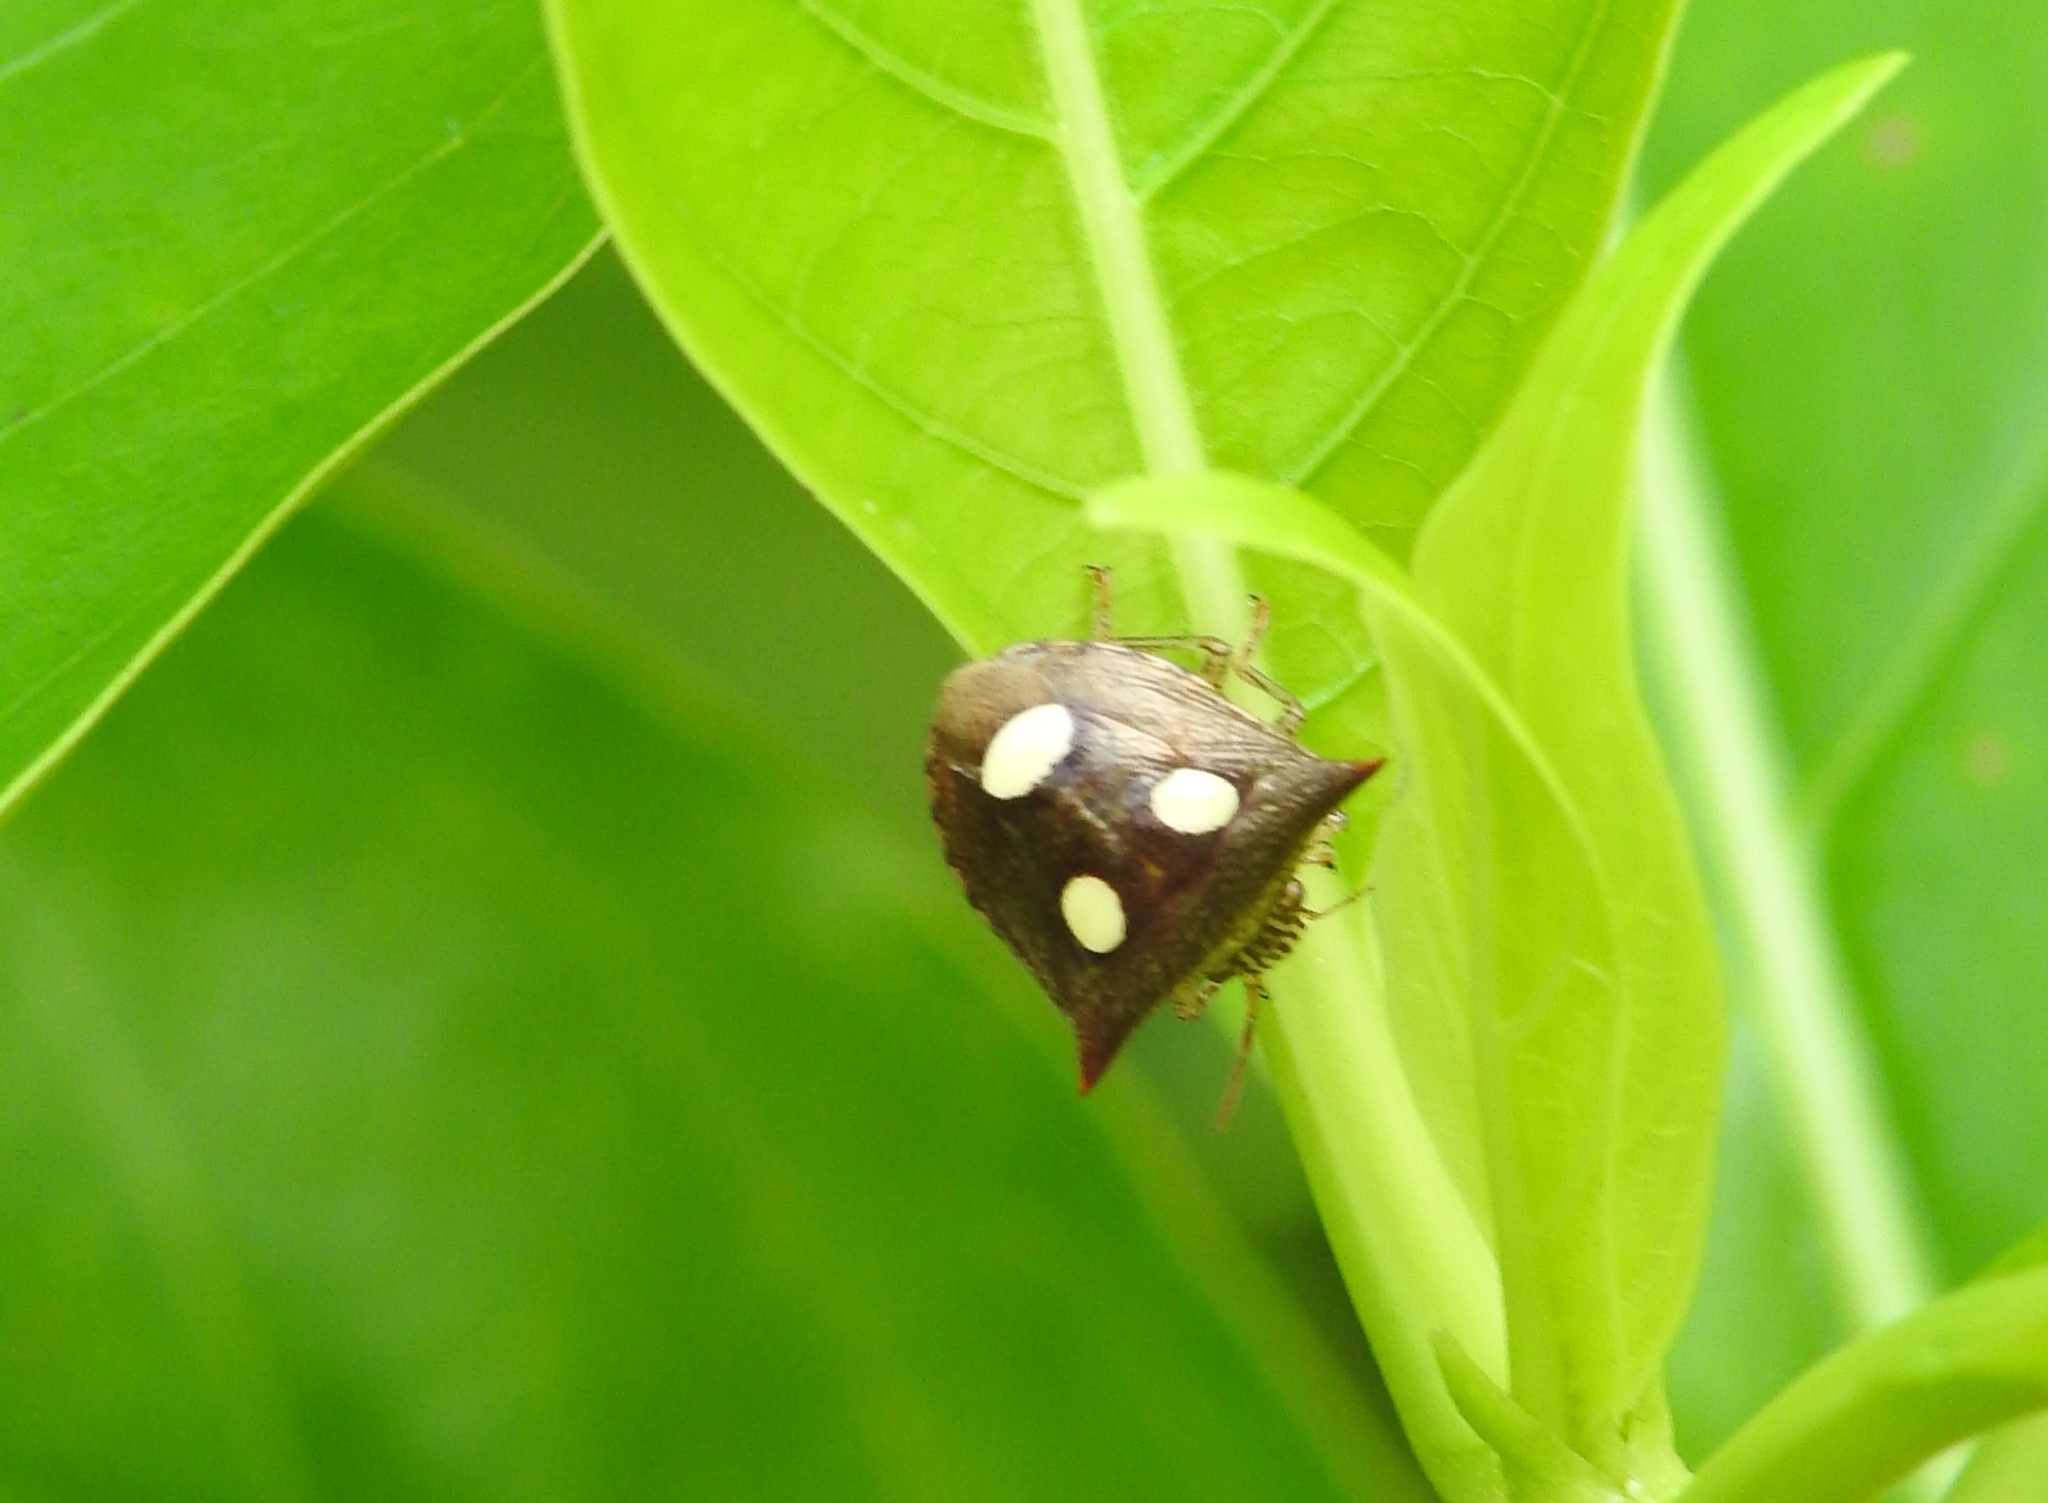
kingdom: Animalia
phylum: Arthropoda
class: Insecta
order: Hemiptera
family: Pentatomidae
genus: Paracritheus
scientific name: Paracritheus
